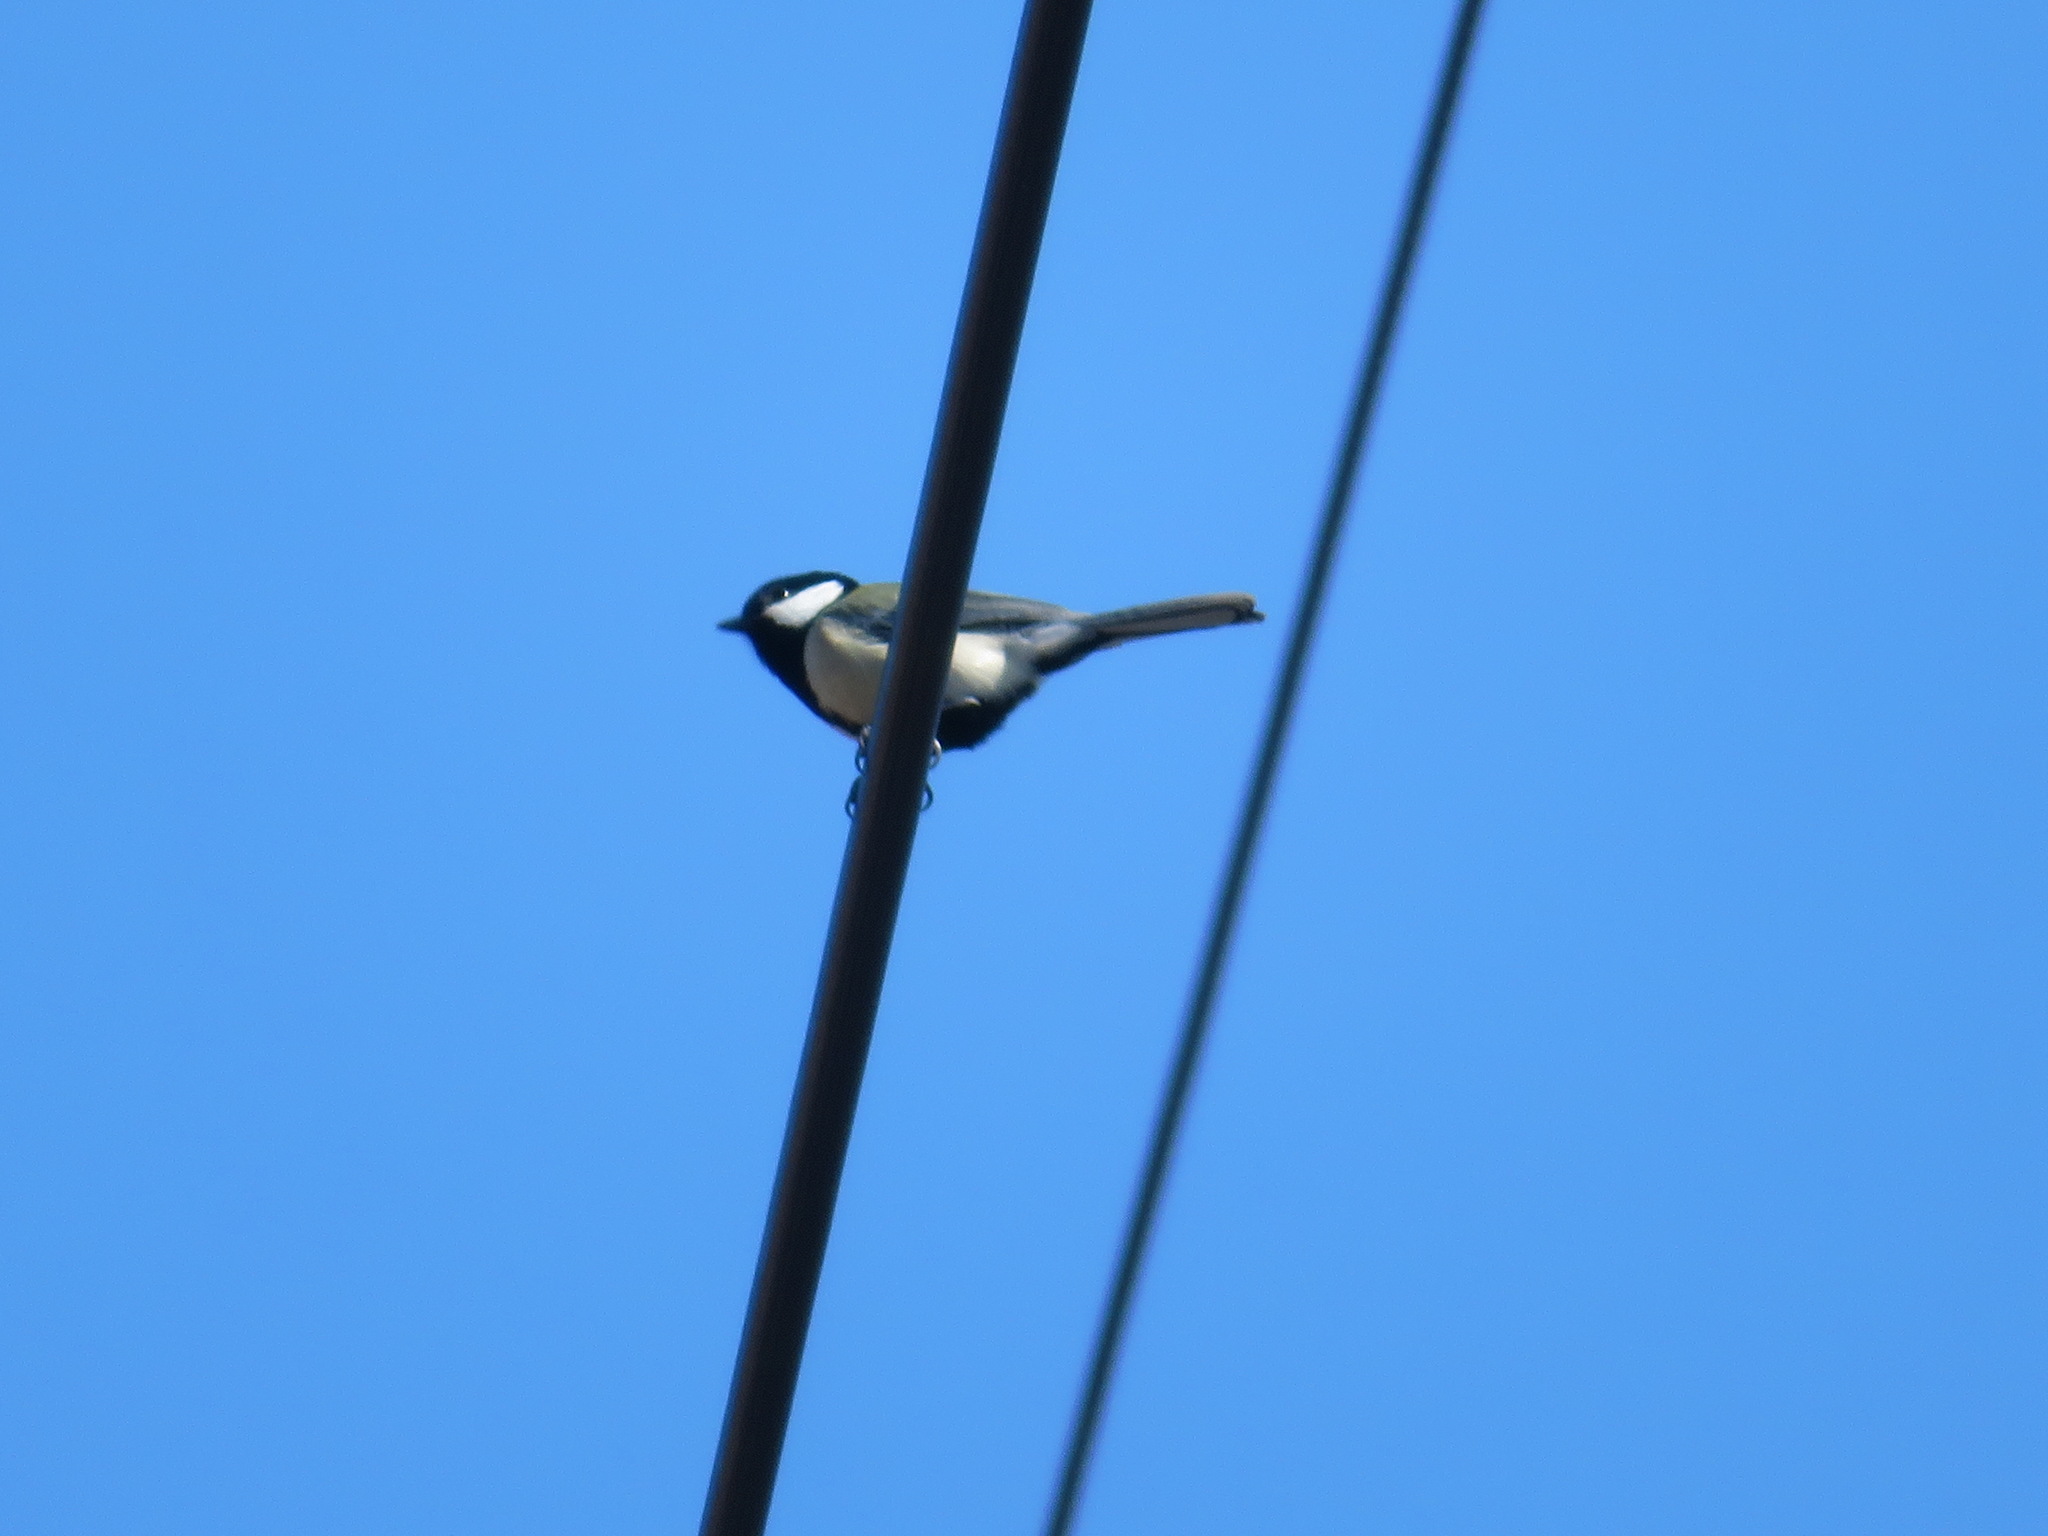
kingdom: Animalia
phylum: Chordata
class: Aves
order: Passeriformes
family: Paridae
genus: Parus
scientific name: Parus minor
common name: Japanese tit
